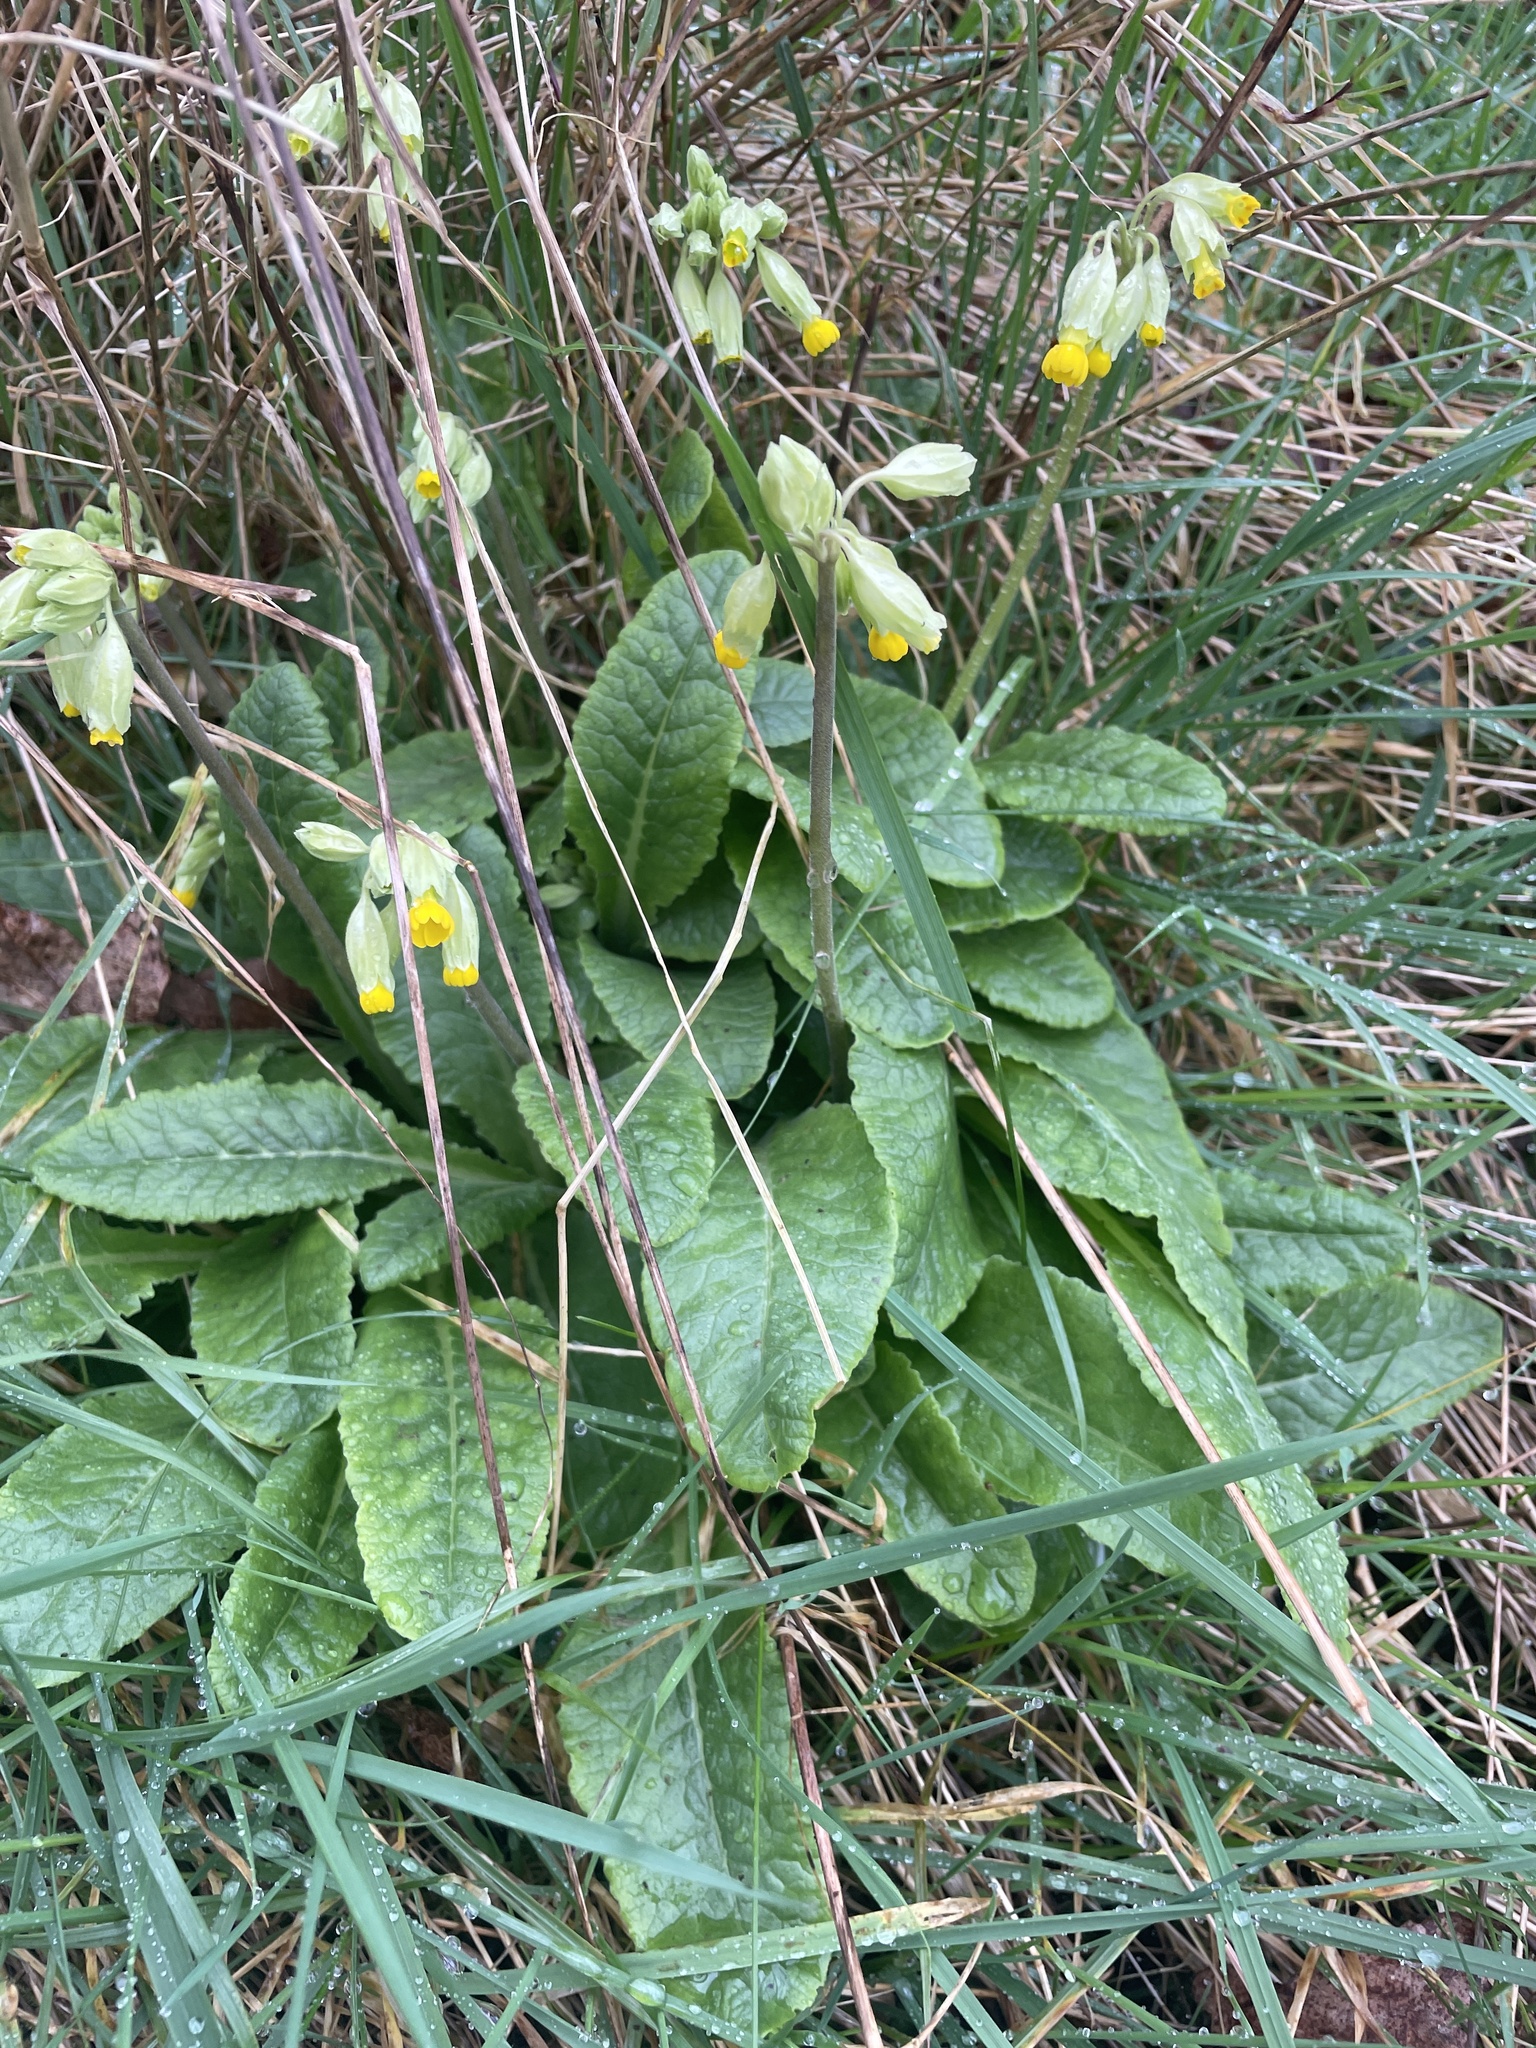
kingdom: Plantae
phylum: Tracheophyta
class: Magnoliopsida
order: Ericales
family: Primulaceae
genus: Primula
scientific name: Primula veris
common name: Cowslip
